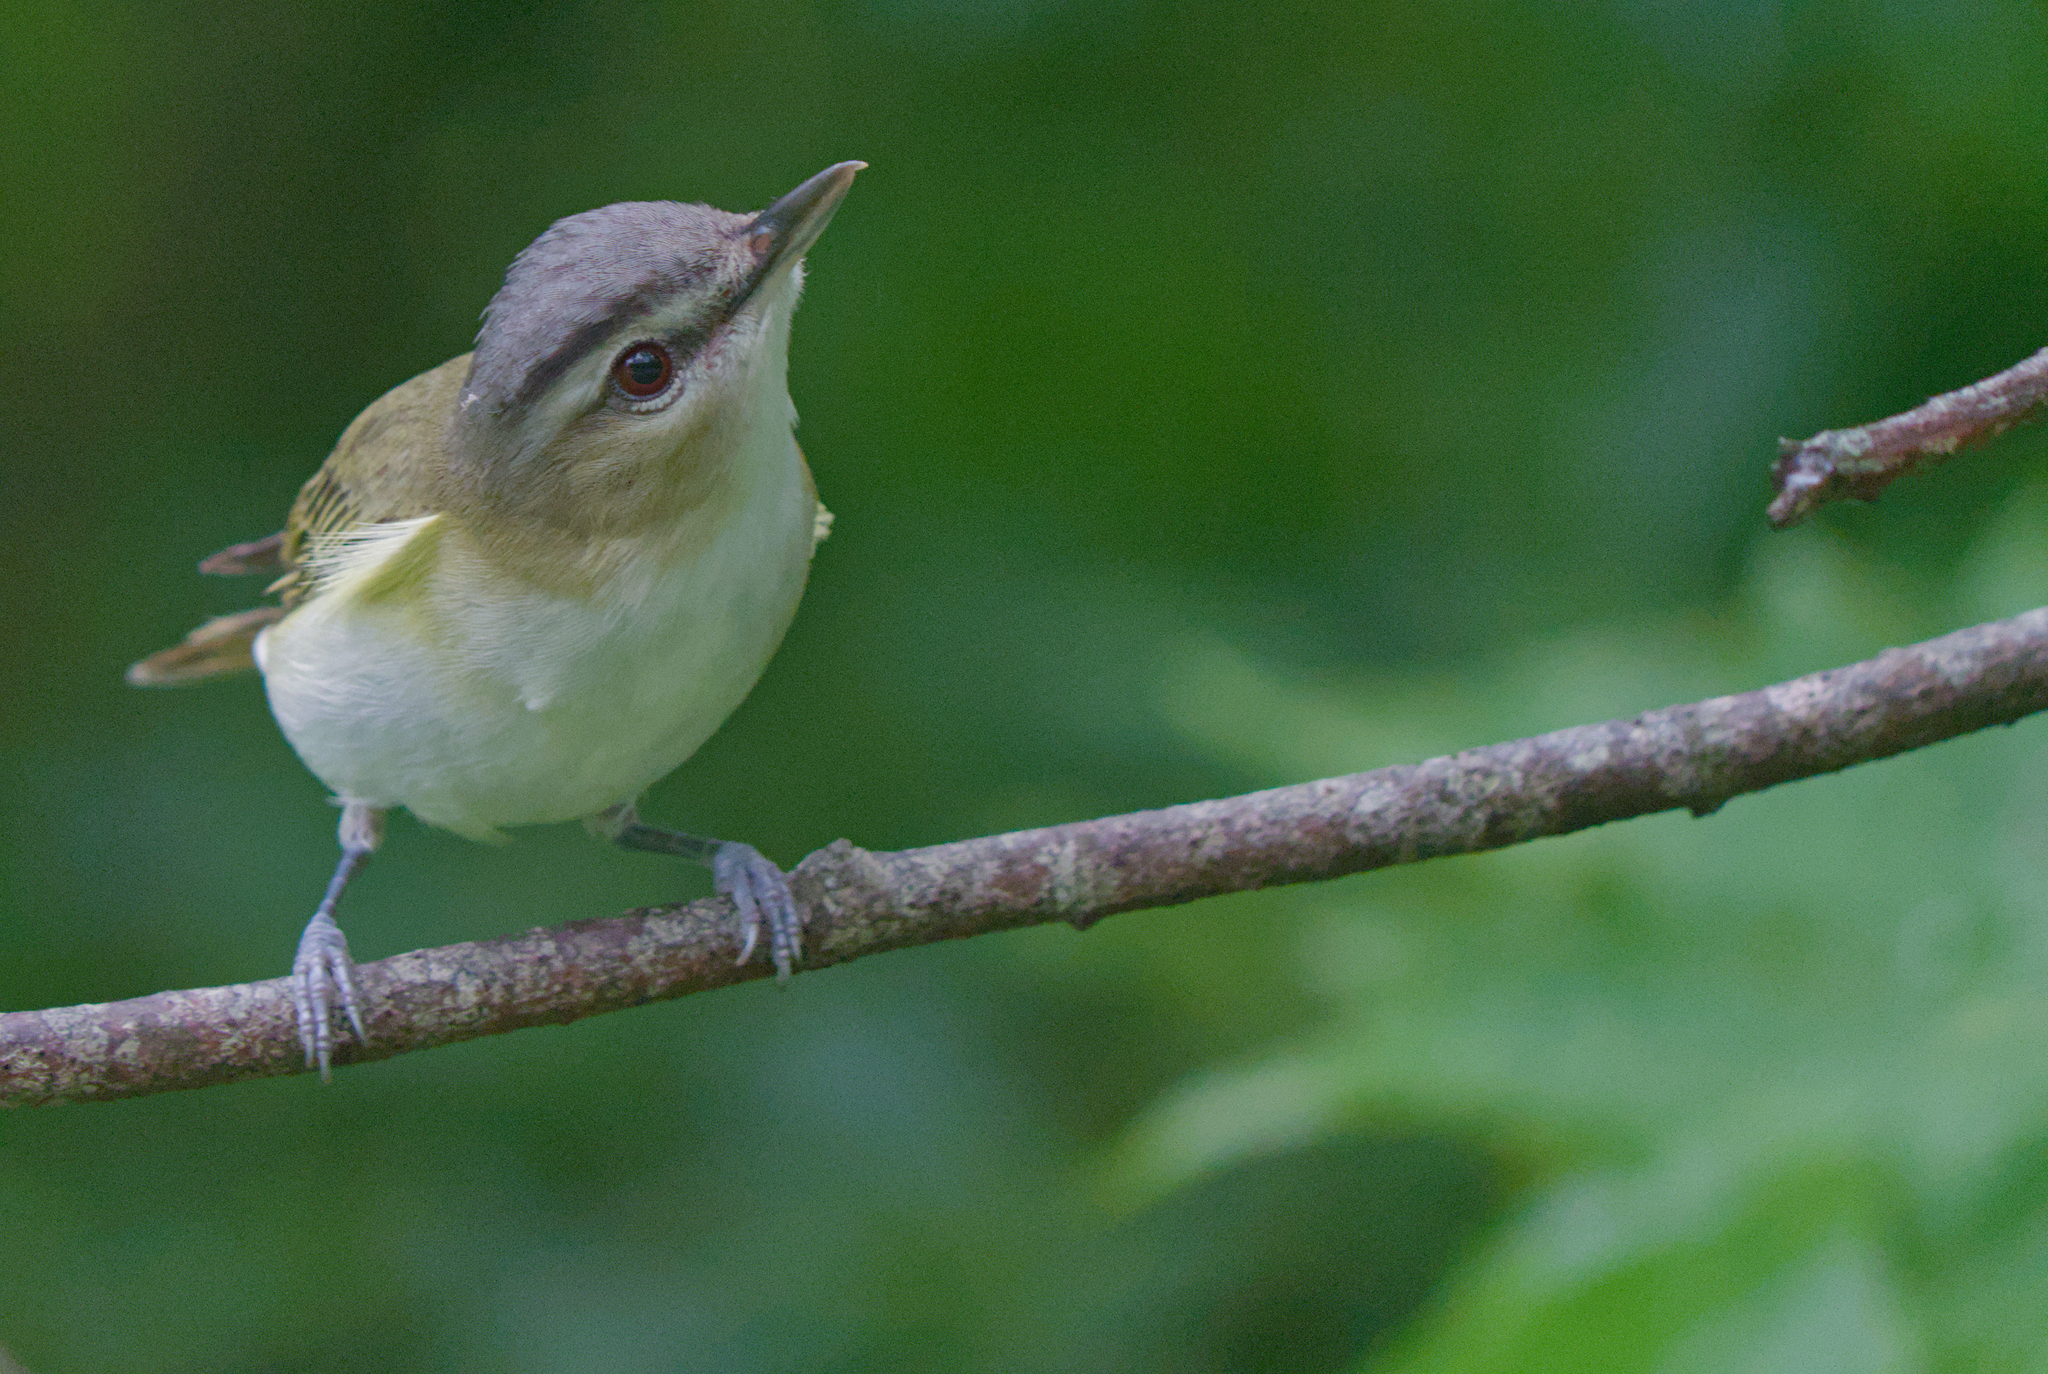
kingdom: Animalia
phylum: Chordata
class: Aves
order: Passeriformes
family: Vireonidae
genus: Vireo
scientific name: Vireo olivaceus
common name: Red-eyed vireo
